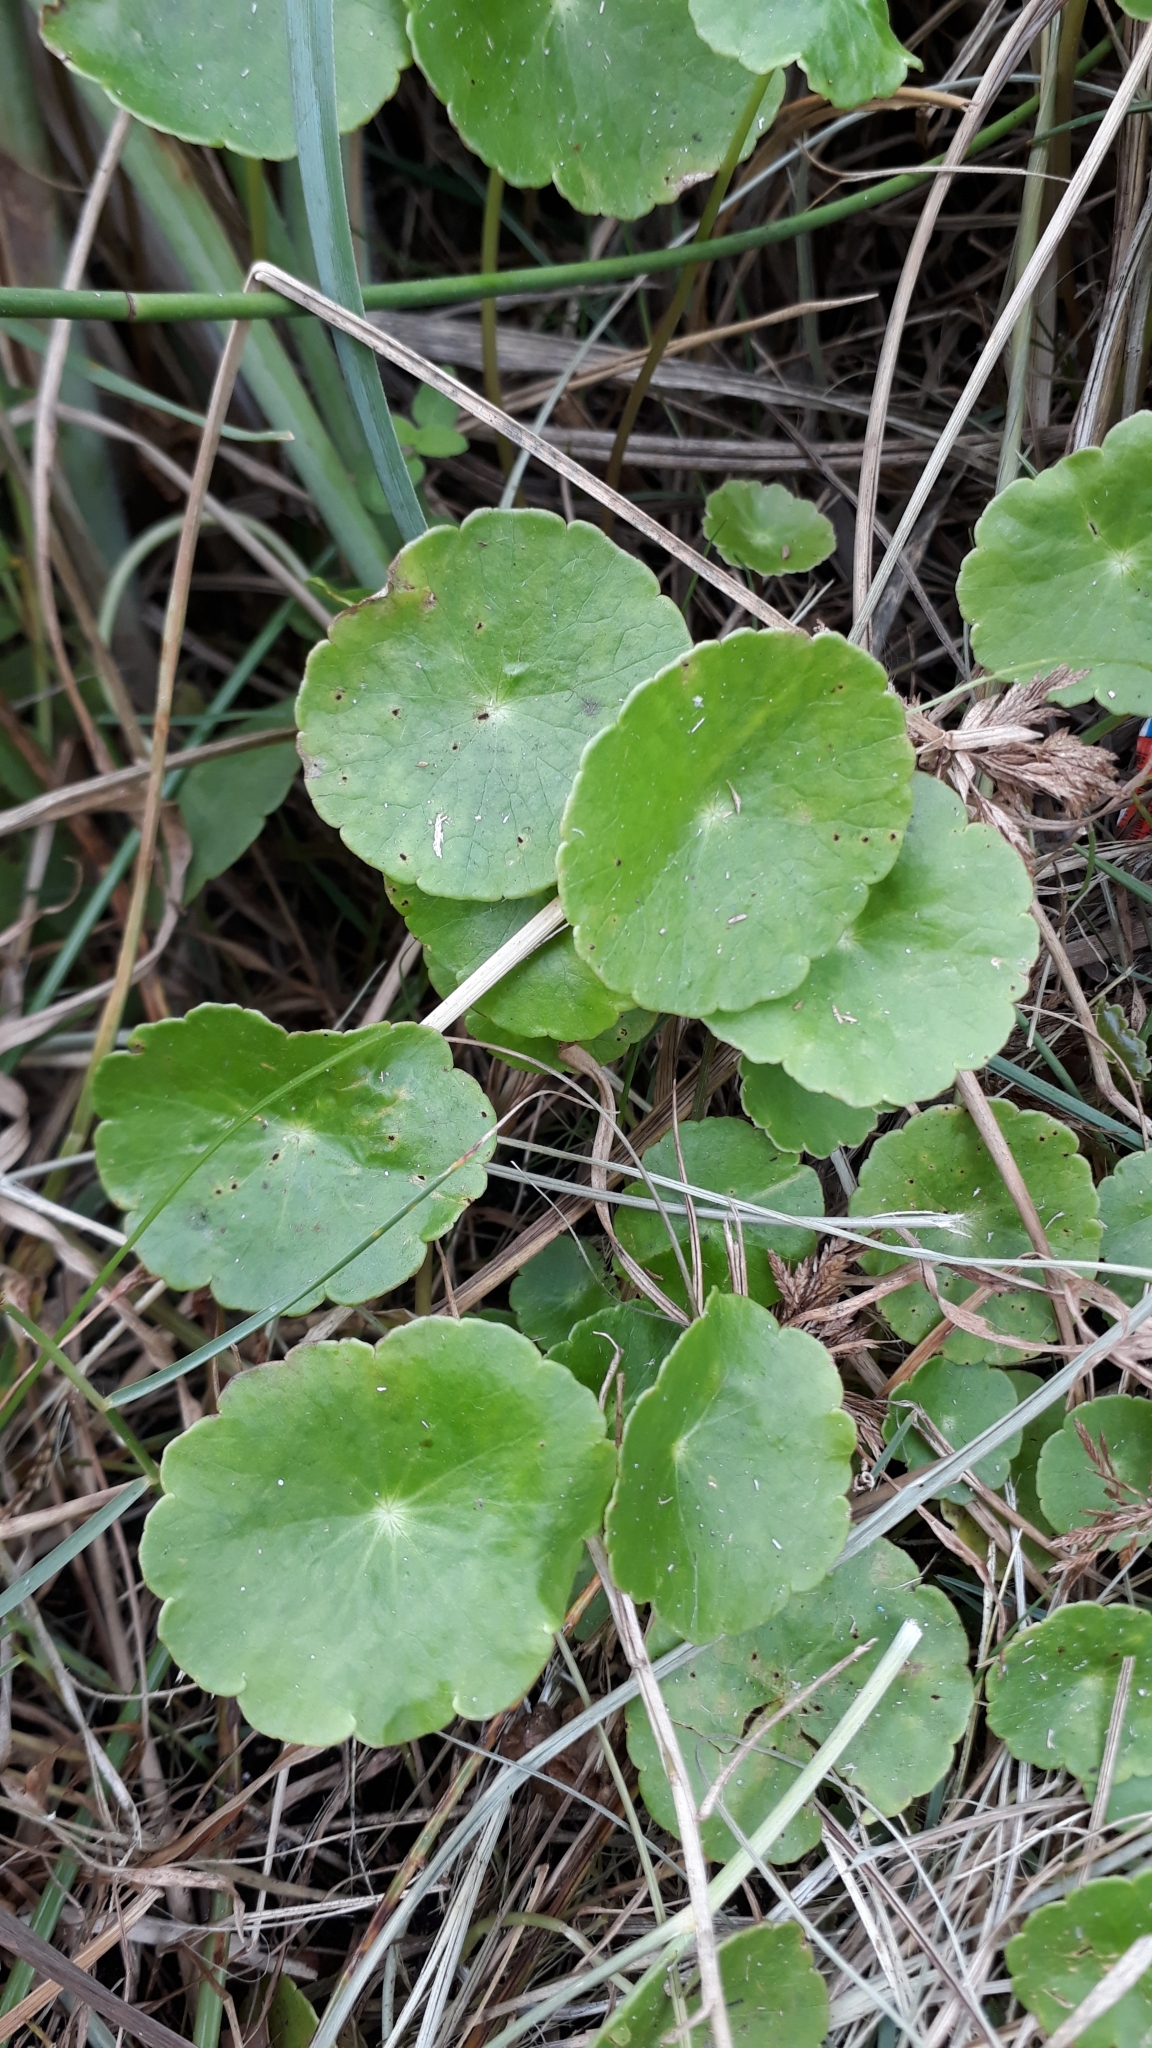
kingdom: Plantae
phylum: Tracheophyta
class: Magnoliopsida
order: Apiales
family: Araliaceae
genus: Hydrocotyle
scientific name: Hydrocotyle verticillata
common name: Whorled marshpennywort
